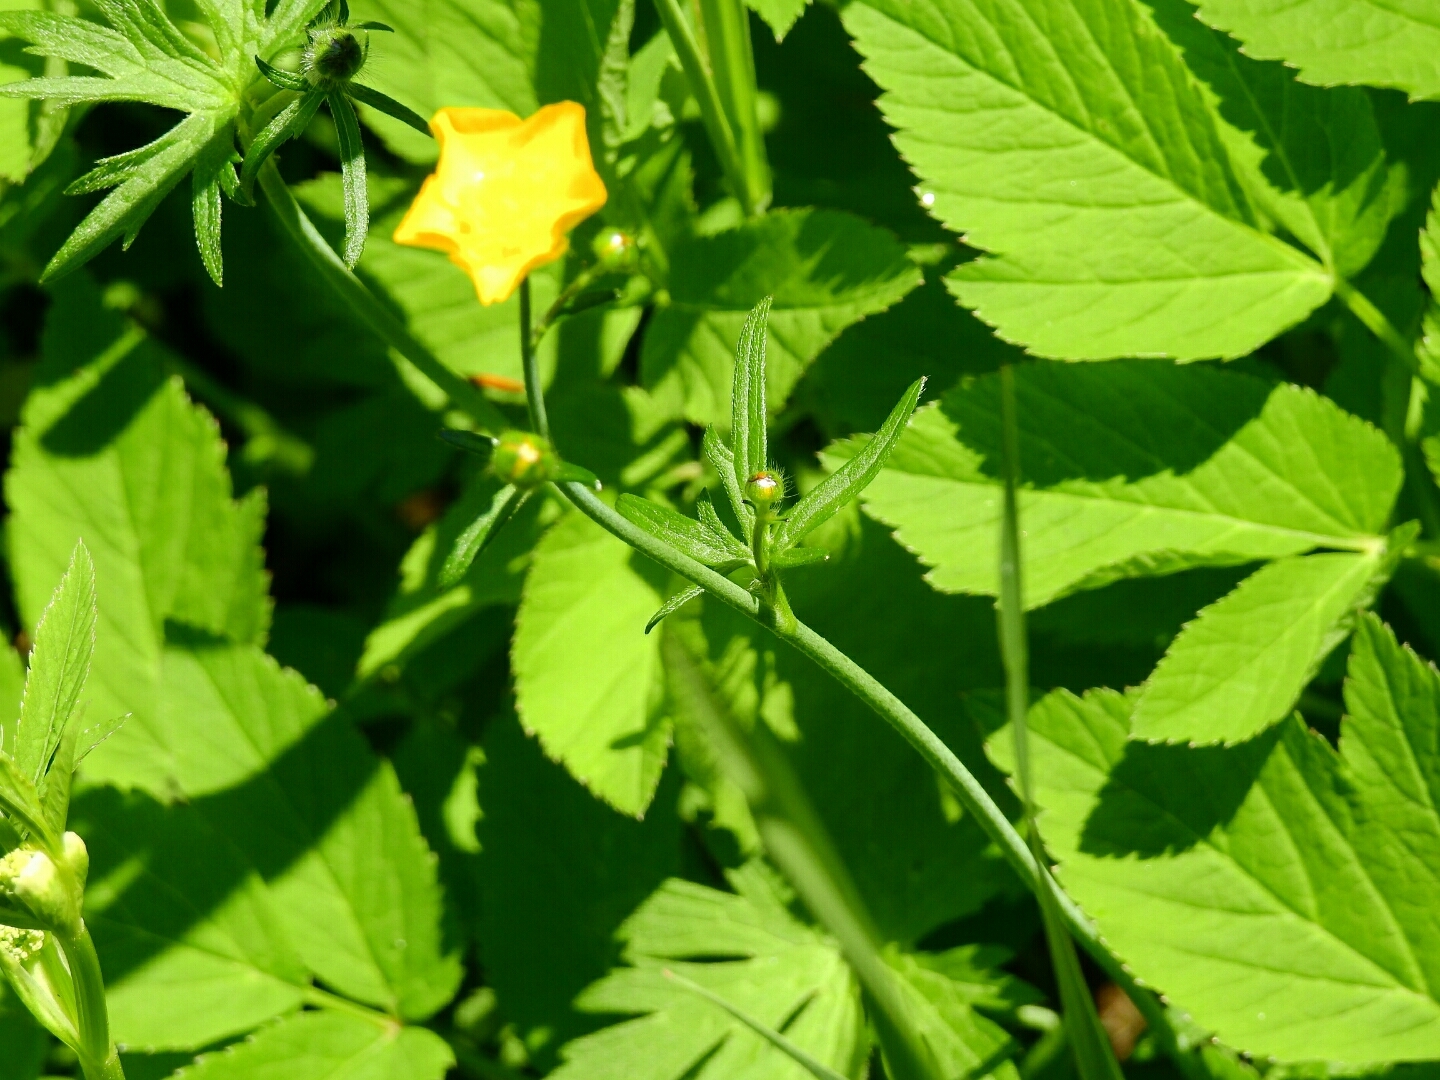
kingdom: Plantae
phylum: Tracheophyta
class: Magnoliopsida
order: Ranunculales
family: Ranunculaceae
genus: Ranunculus
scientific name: Ranunculus acris
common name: Meadow buttercup
